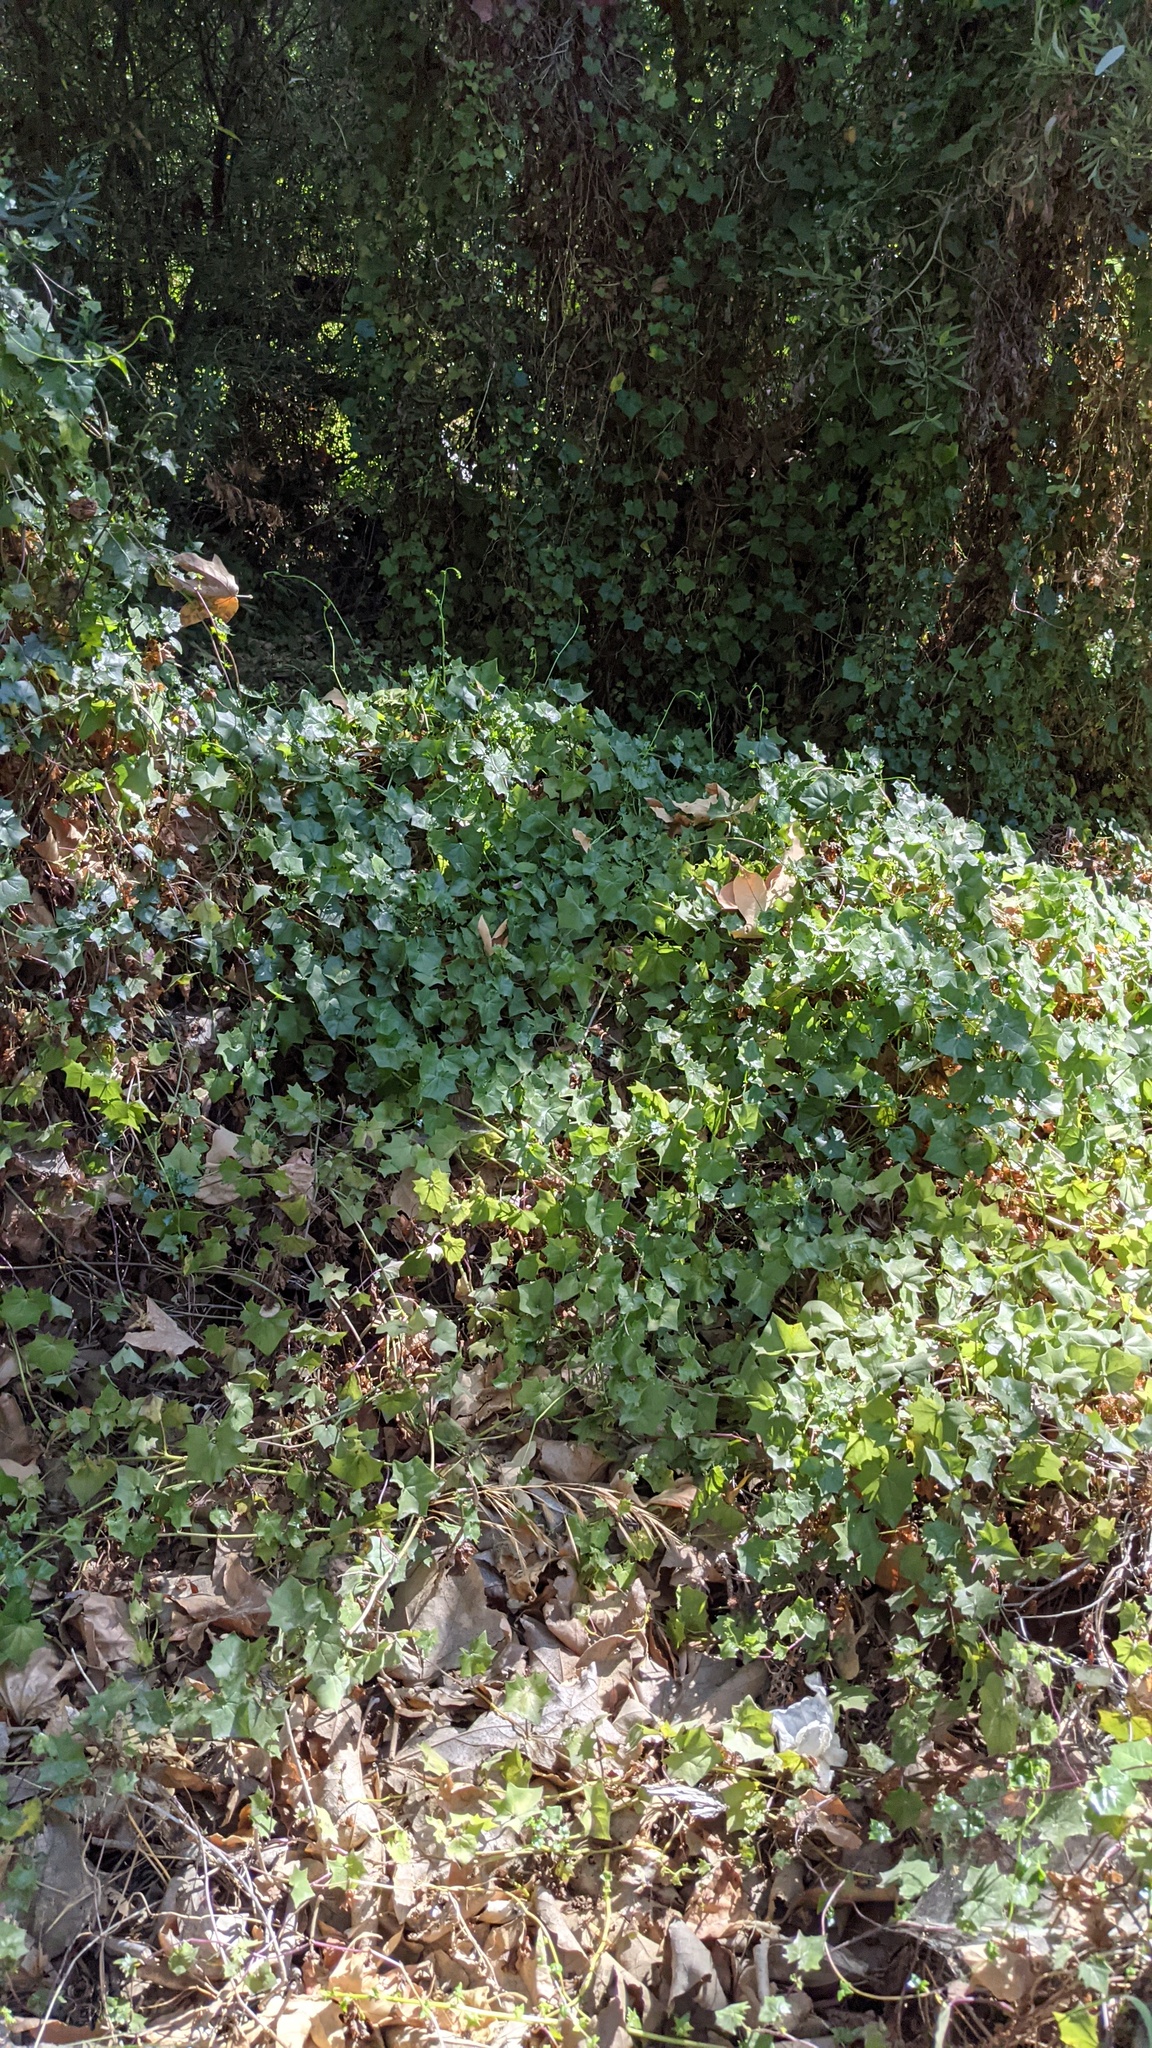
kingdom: Plantae
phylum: Tracheophyta
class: Magnoliopsida
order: Asterales
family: Asteraceae
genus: Delairea
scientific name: Delairea odorata
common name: Cape-ivy
